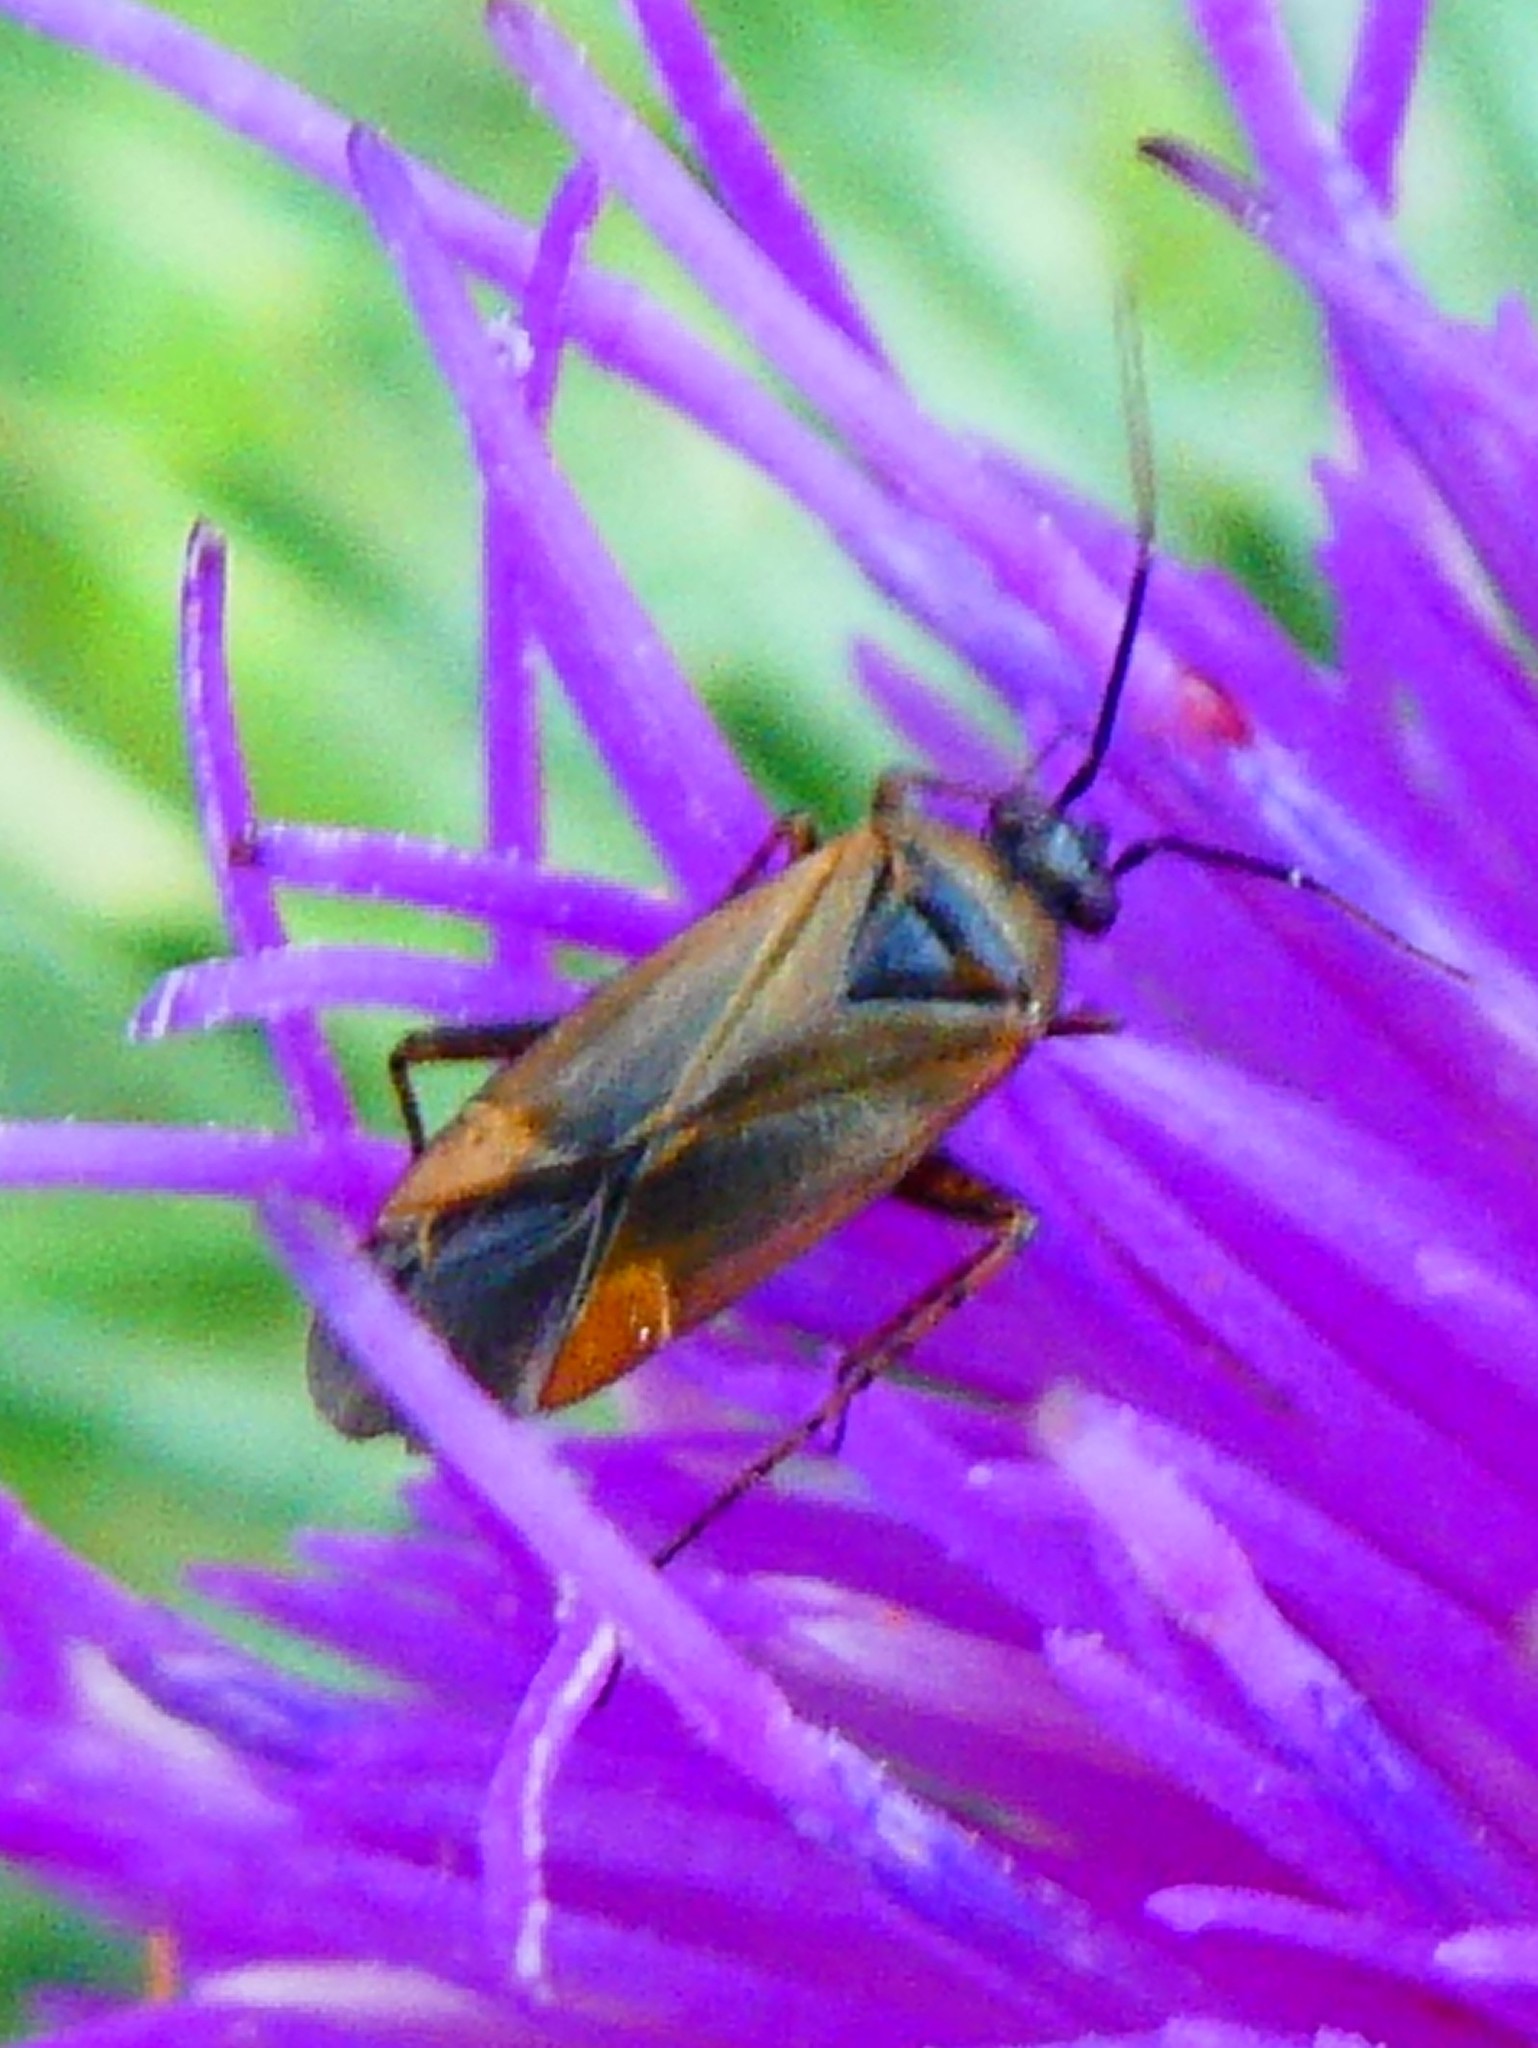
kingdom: Animalia
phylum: Arthropoda
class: Insecta
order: Hemiptera
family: Miridae
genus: Plagiognathus
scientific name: Plagiognathus arbustorum
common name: Plant bug
